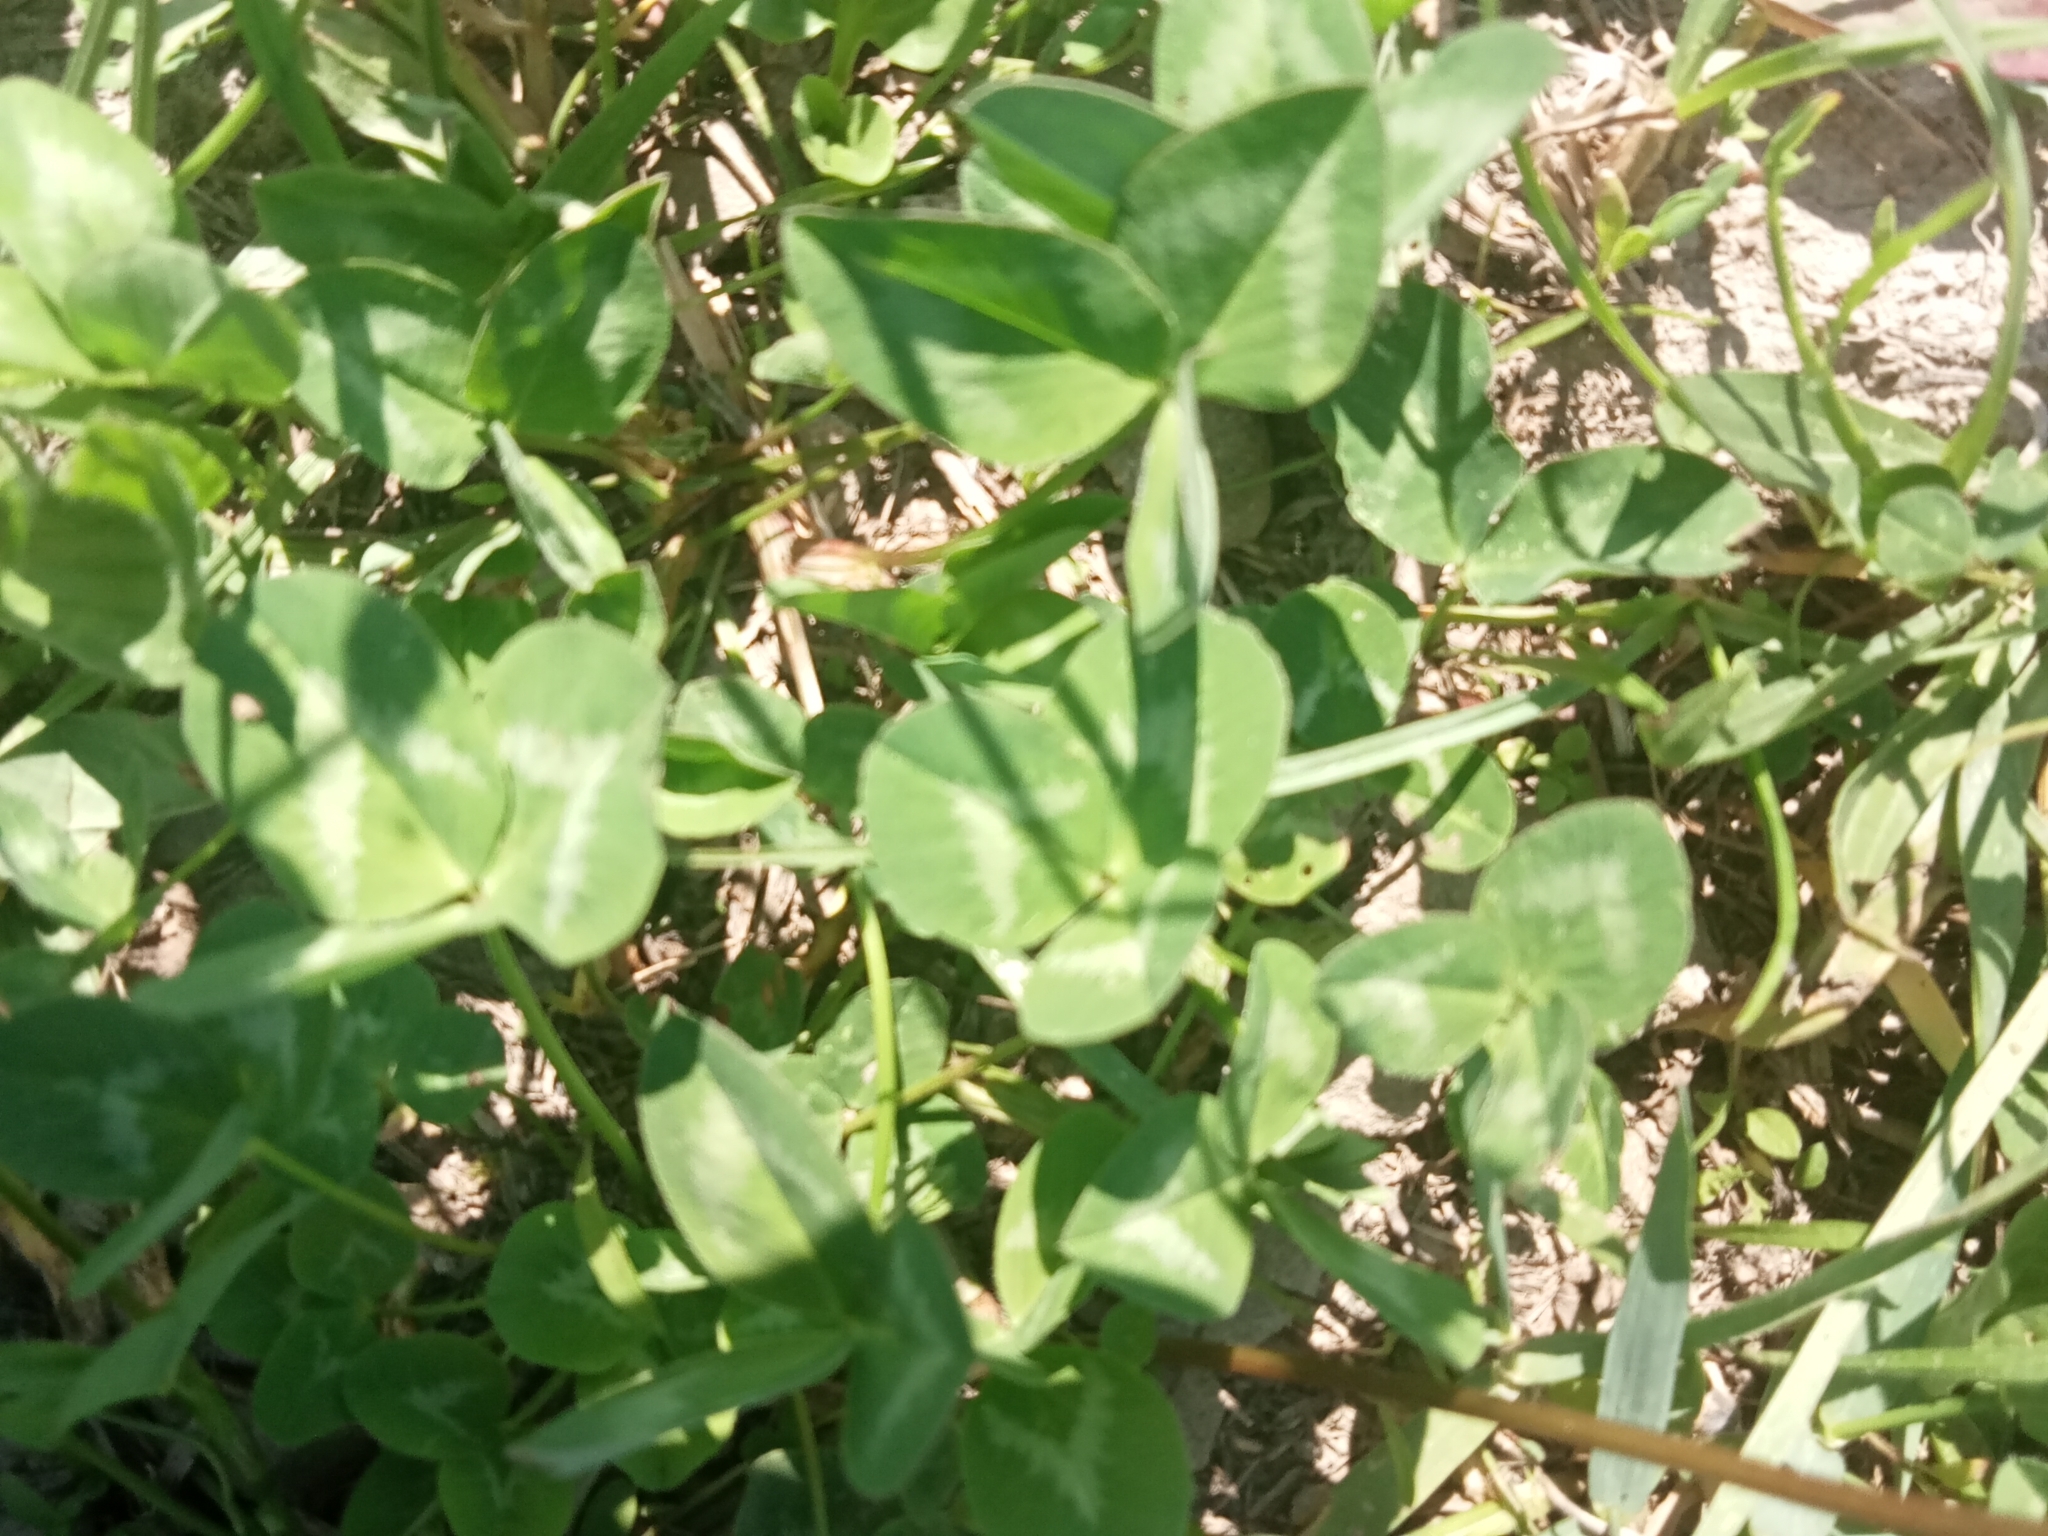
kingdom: Plantae
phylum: Tracheophyta
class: Magnoliopsida
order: Fabales
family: Fabaceae
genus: Trifolium
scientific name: Trifolium pratense
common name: Red clover
